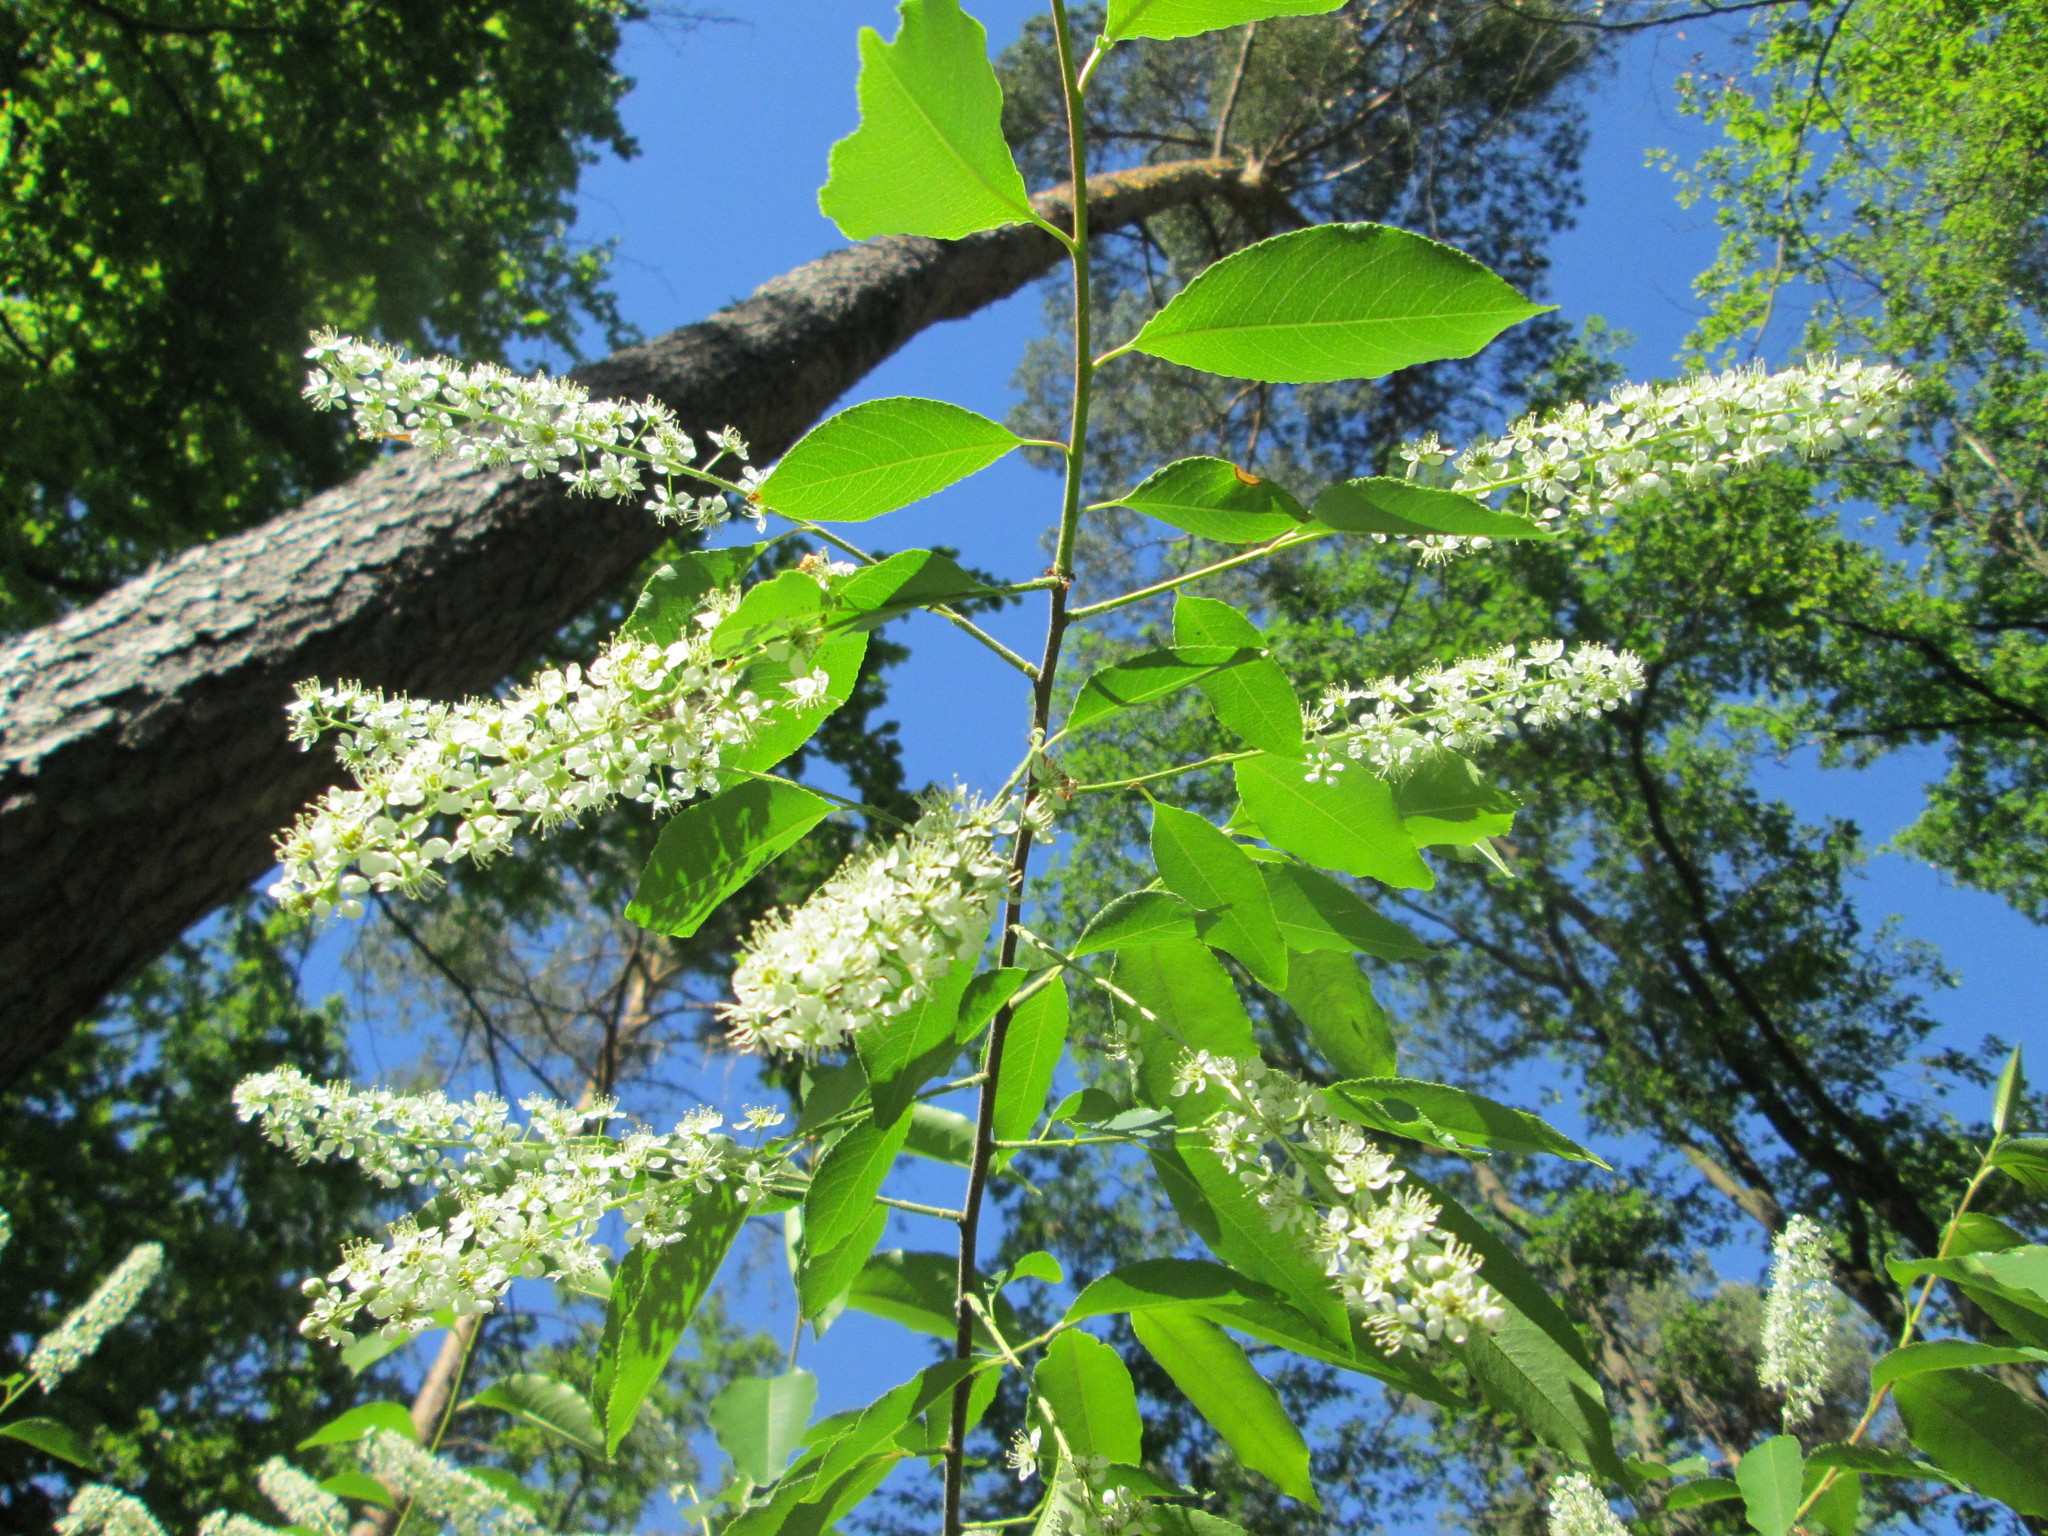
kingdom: Plantae
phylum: Tracheophyta
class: Magnoliopsida
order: Rosales
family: Rosaceae
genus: Prunus
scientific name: Prunus serotina
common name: Black cherry
